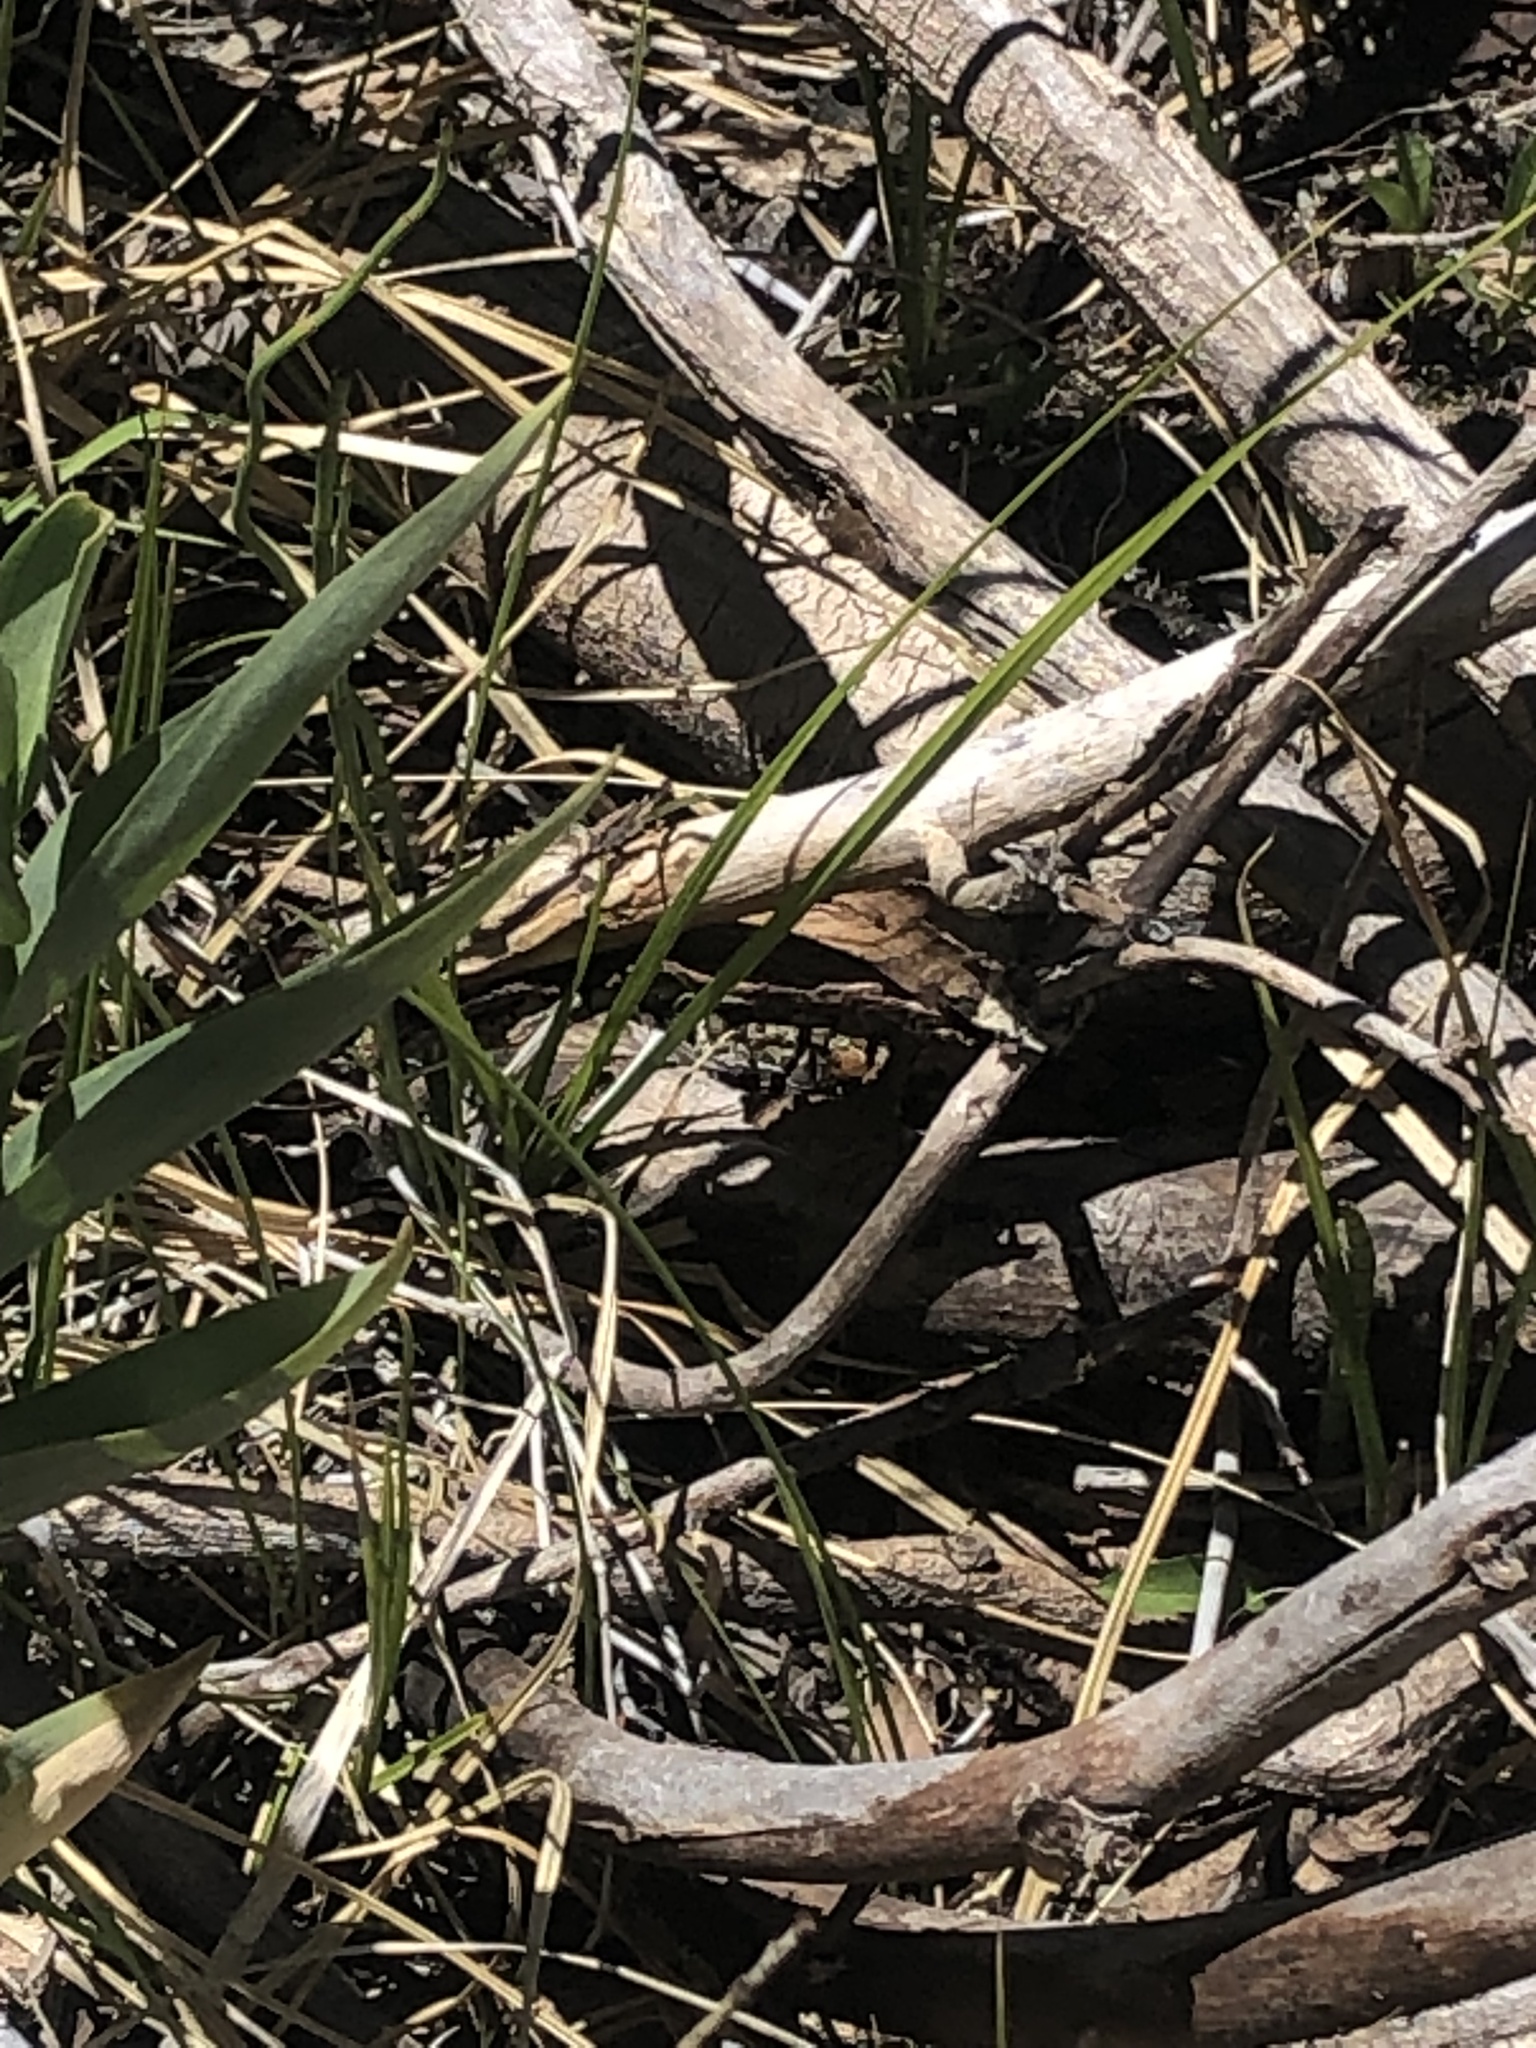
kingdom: Animalia
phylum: Chordata
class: Amphibia
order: Anura
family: Bufonidae
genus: Anaxyrus
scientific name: Anaxyrus canorus
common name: Yosemite toad
